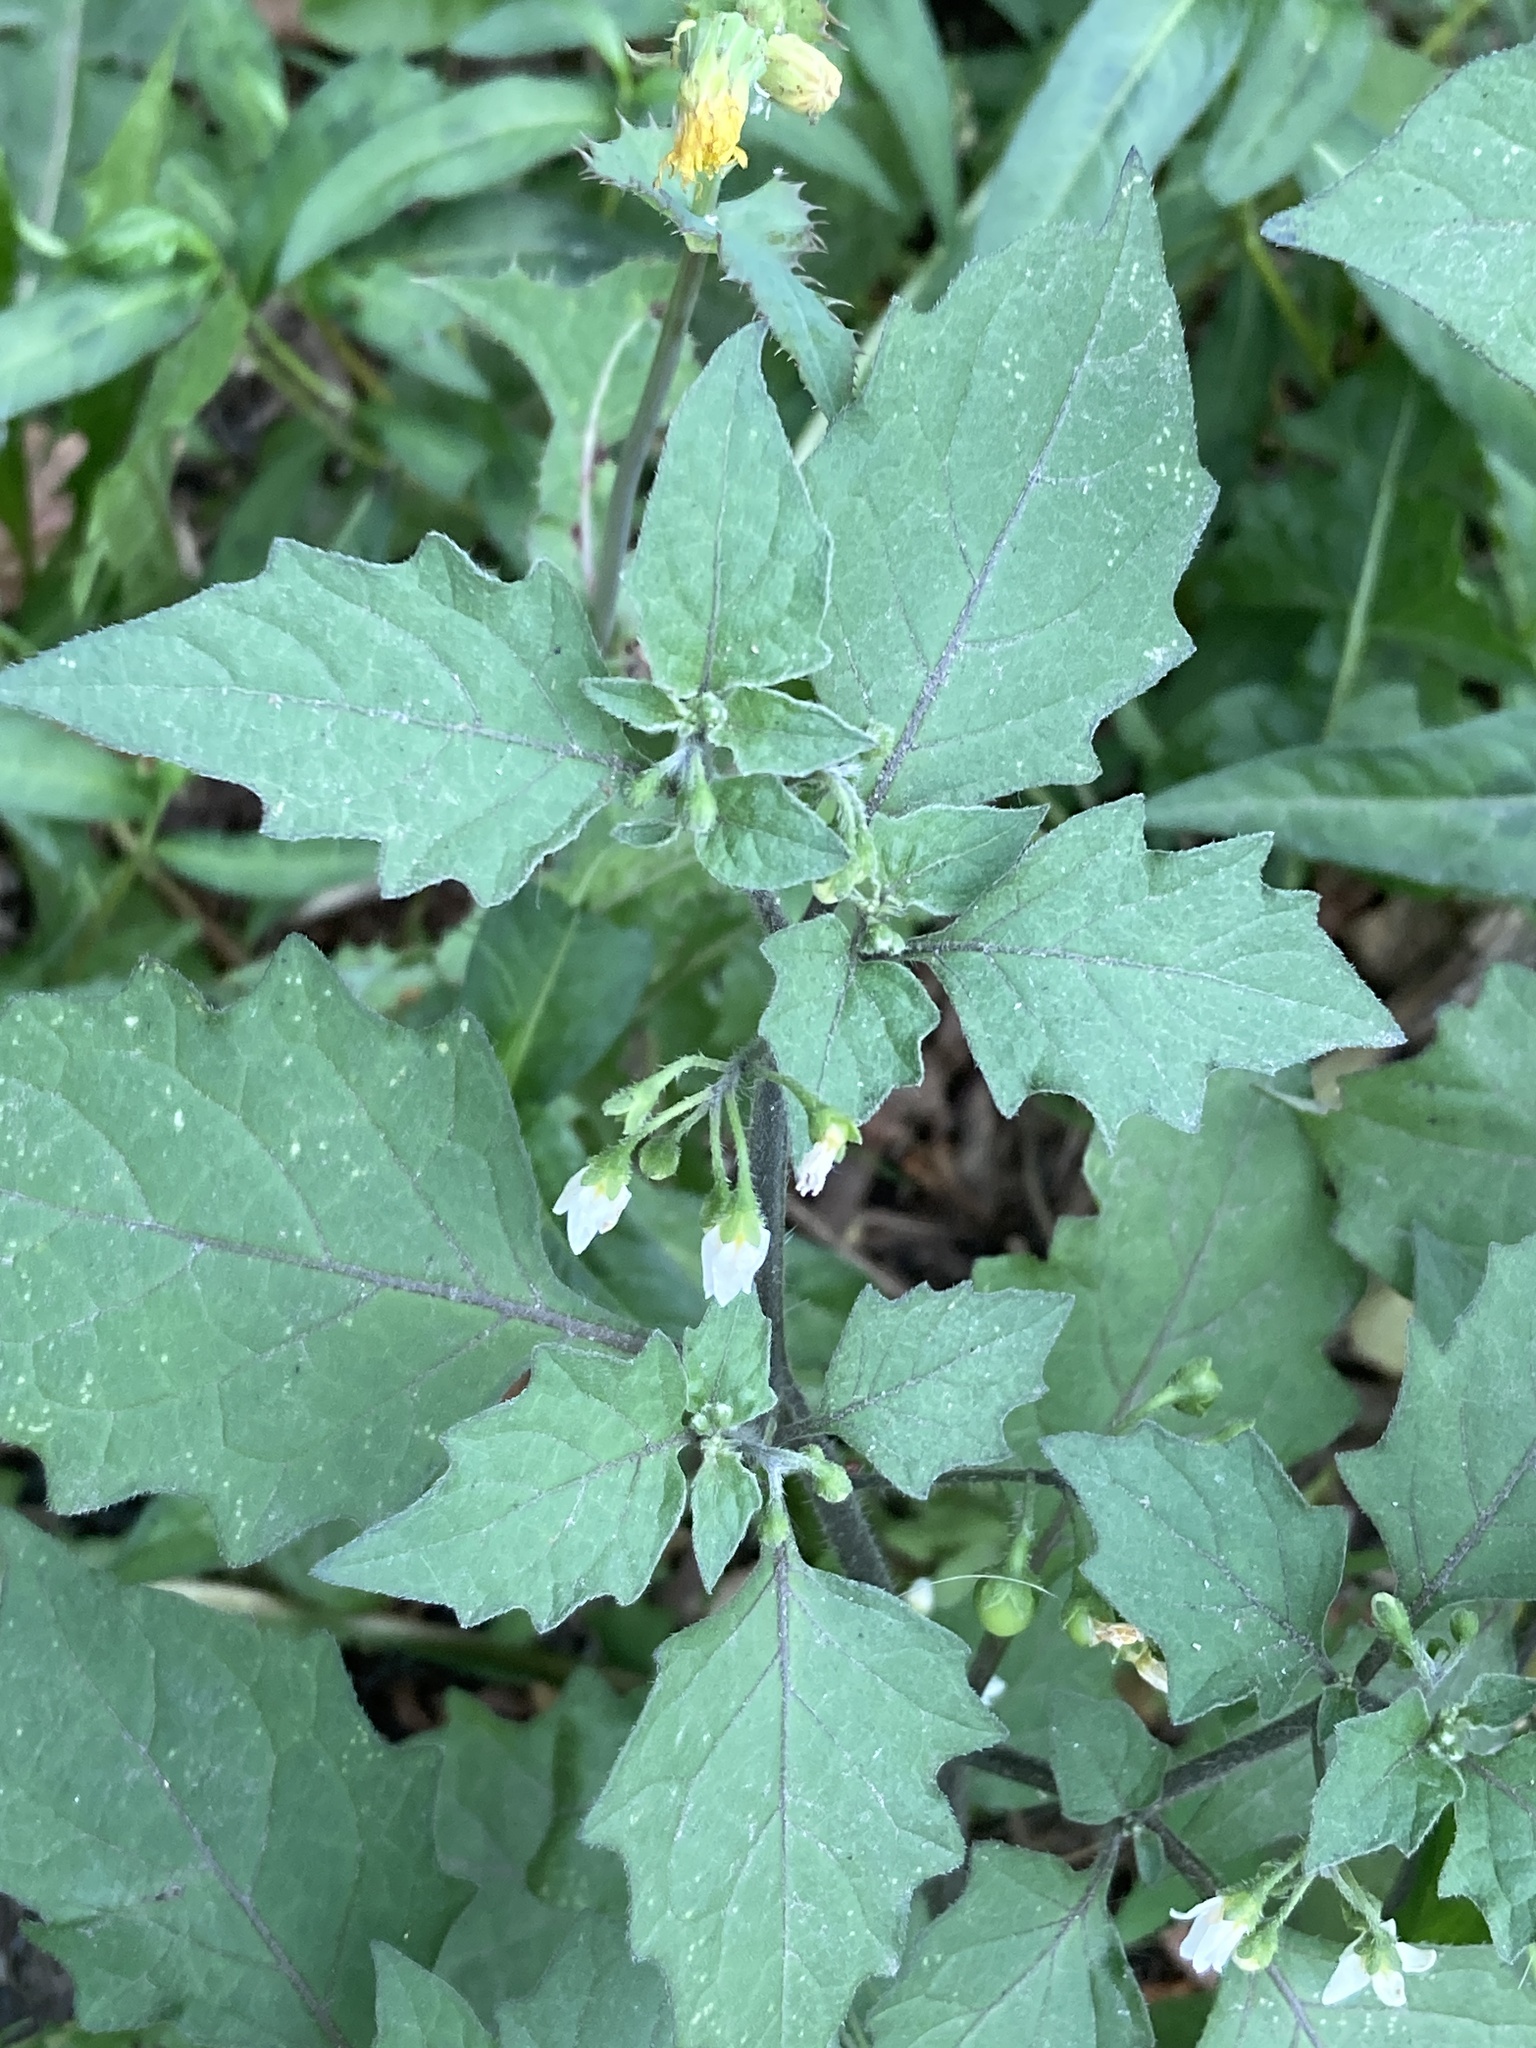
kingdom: Plantae
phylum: Tracheophyta
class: Magnoliopsida
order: Solanales
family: Solanaceae
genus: Solanum
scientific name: Solanum nigrum
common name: Black nightshade
